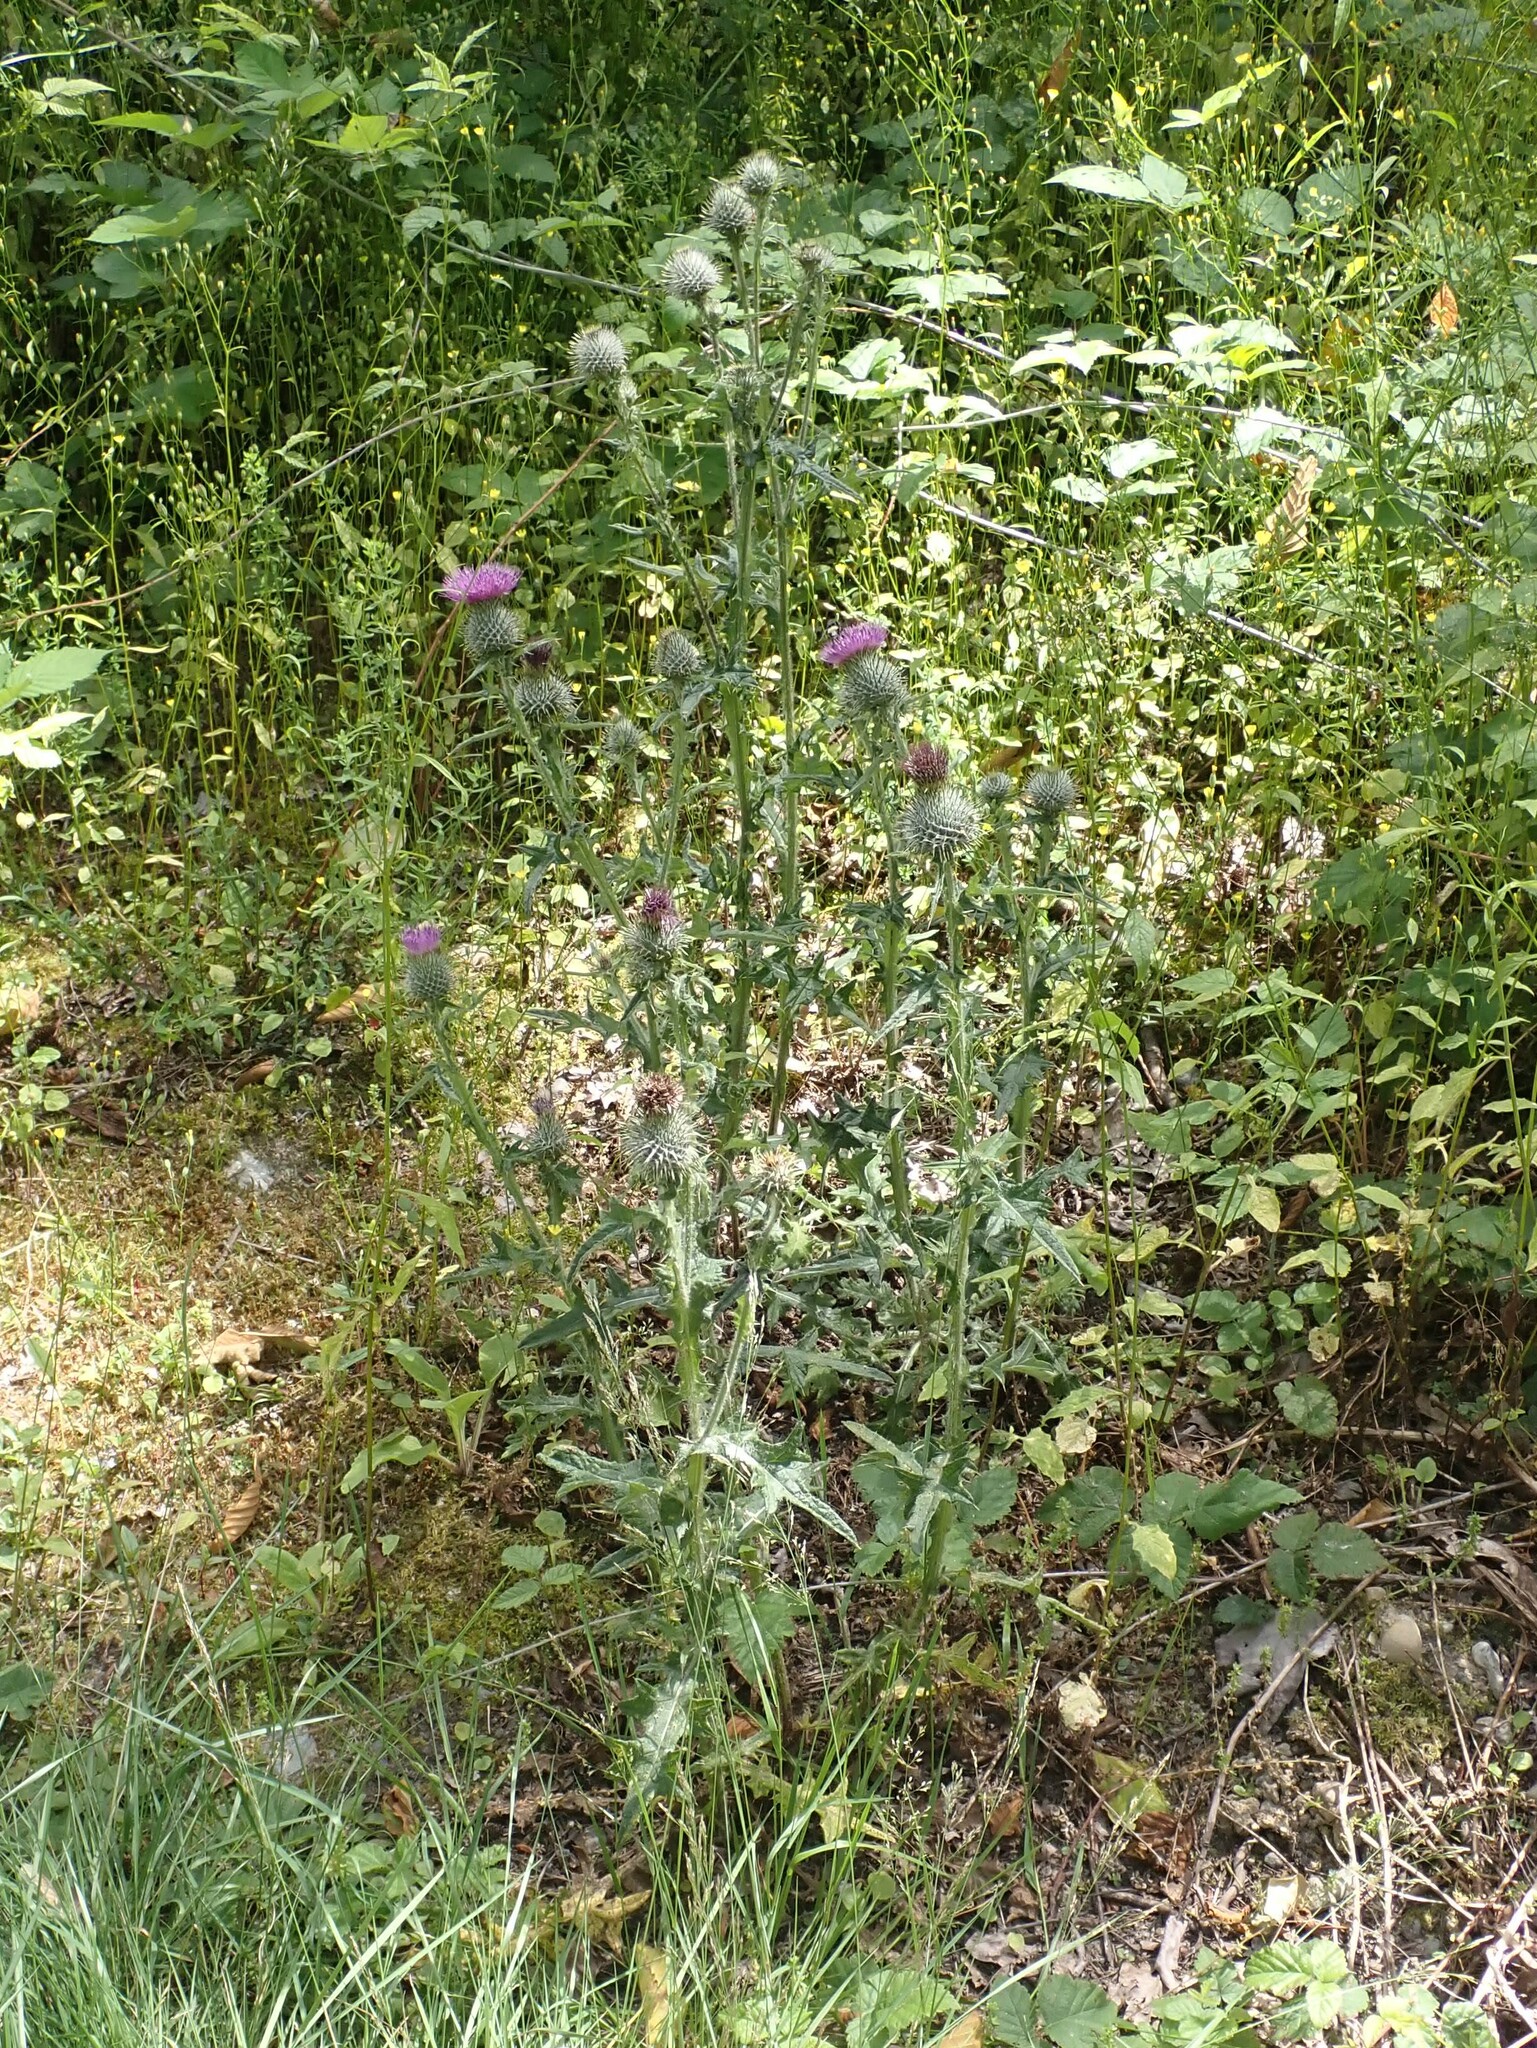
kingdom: Plantae
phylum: Tracheophyta
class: Magnoliopsida
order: Asterales
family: Asteraceae
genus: Cirsium
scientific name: Cirsium vulgare
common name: Bull thistle
